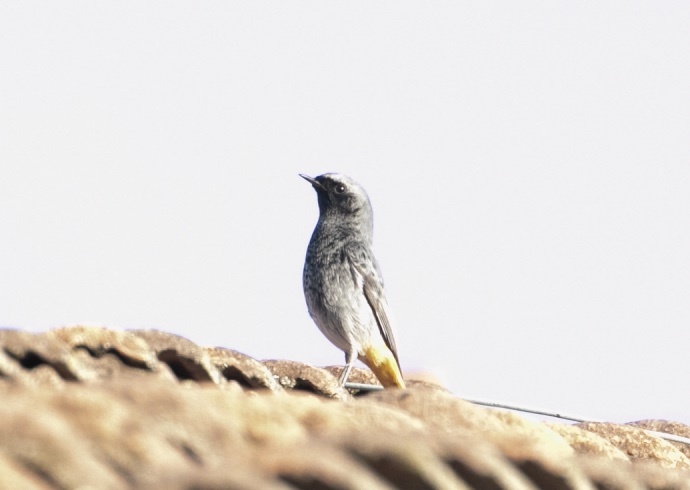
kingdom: Animalia
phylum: Chordata
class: Aves
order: Passeriformes
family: Muscicapidae
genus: Phoenicurus
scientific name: Phoenicurus ochruros
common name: Black redstart
